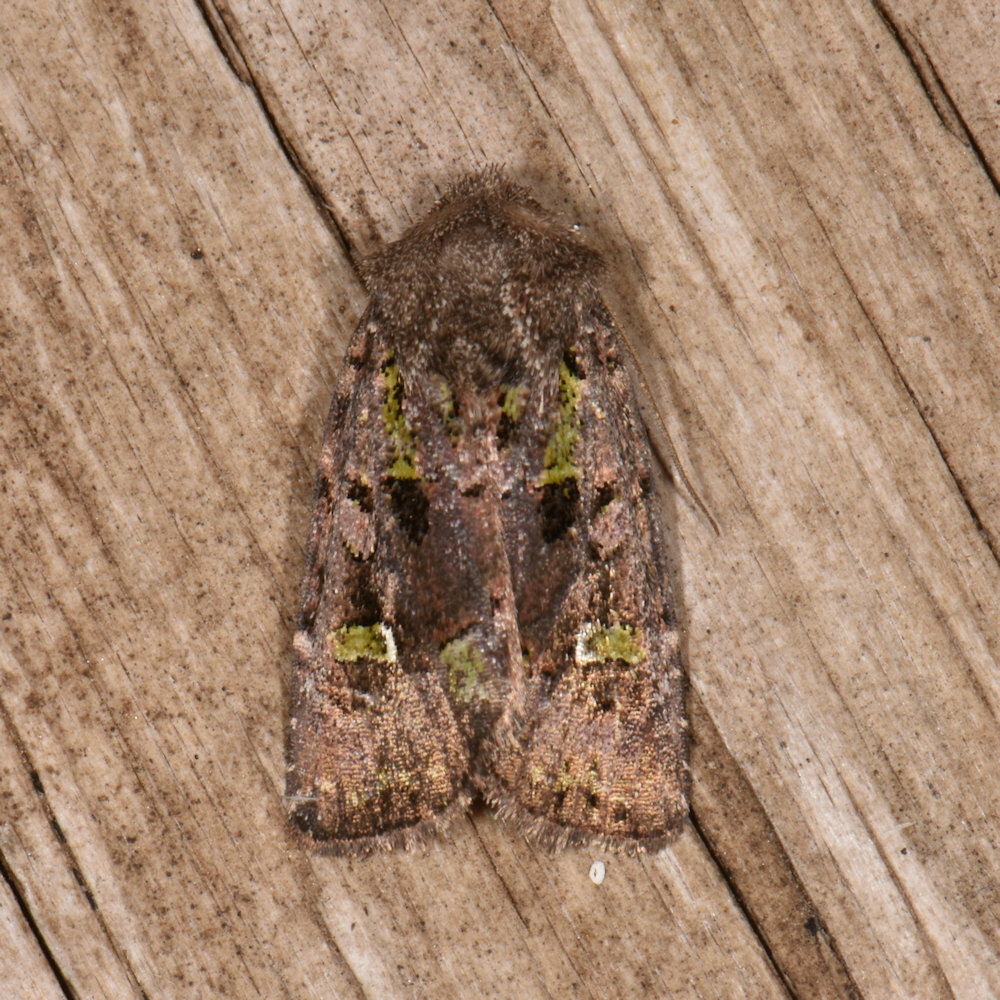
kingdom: Animalia
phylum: Arthropoda
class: Insecta
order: Lepidoptera
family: Noctuidae
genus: Lacinipolia
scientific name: Lacinipolia renigera
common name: Kidney-spotted minor
